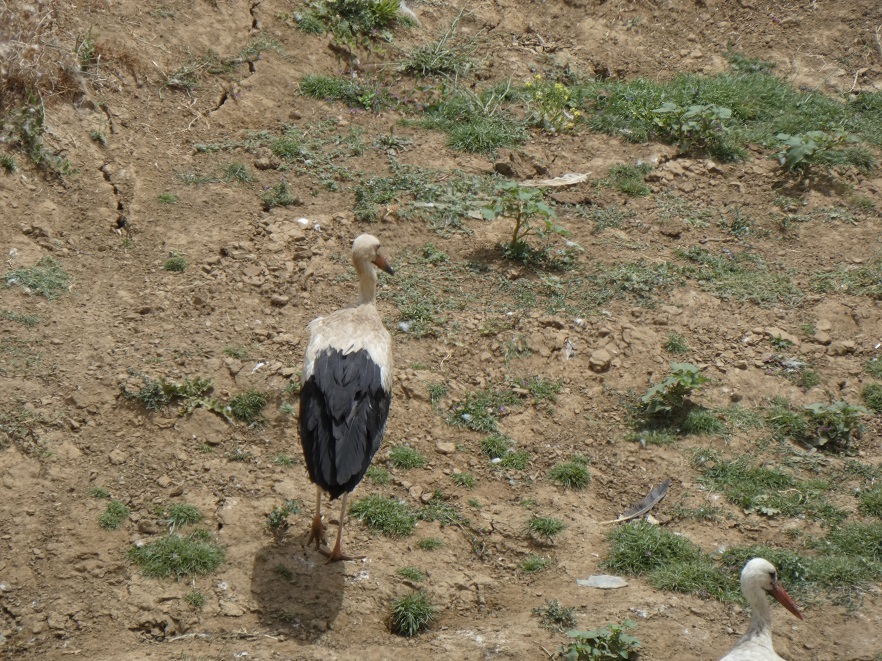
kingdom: Animalia
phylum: Chordata
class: Aves
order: Ciconiiformes
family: Ciconiidae
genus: Ciconia
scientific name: Ciconia ciconia
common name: White stork
